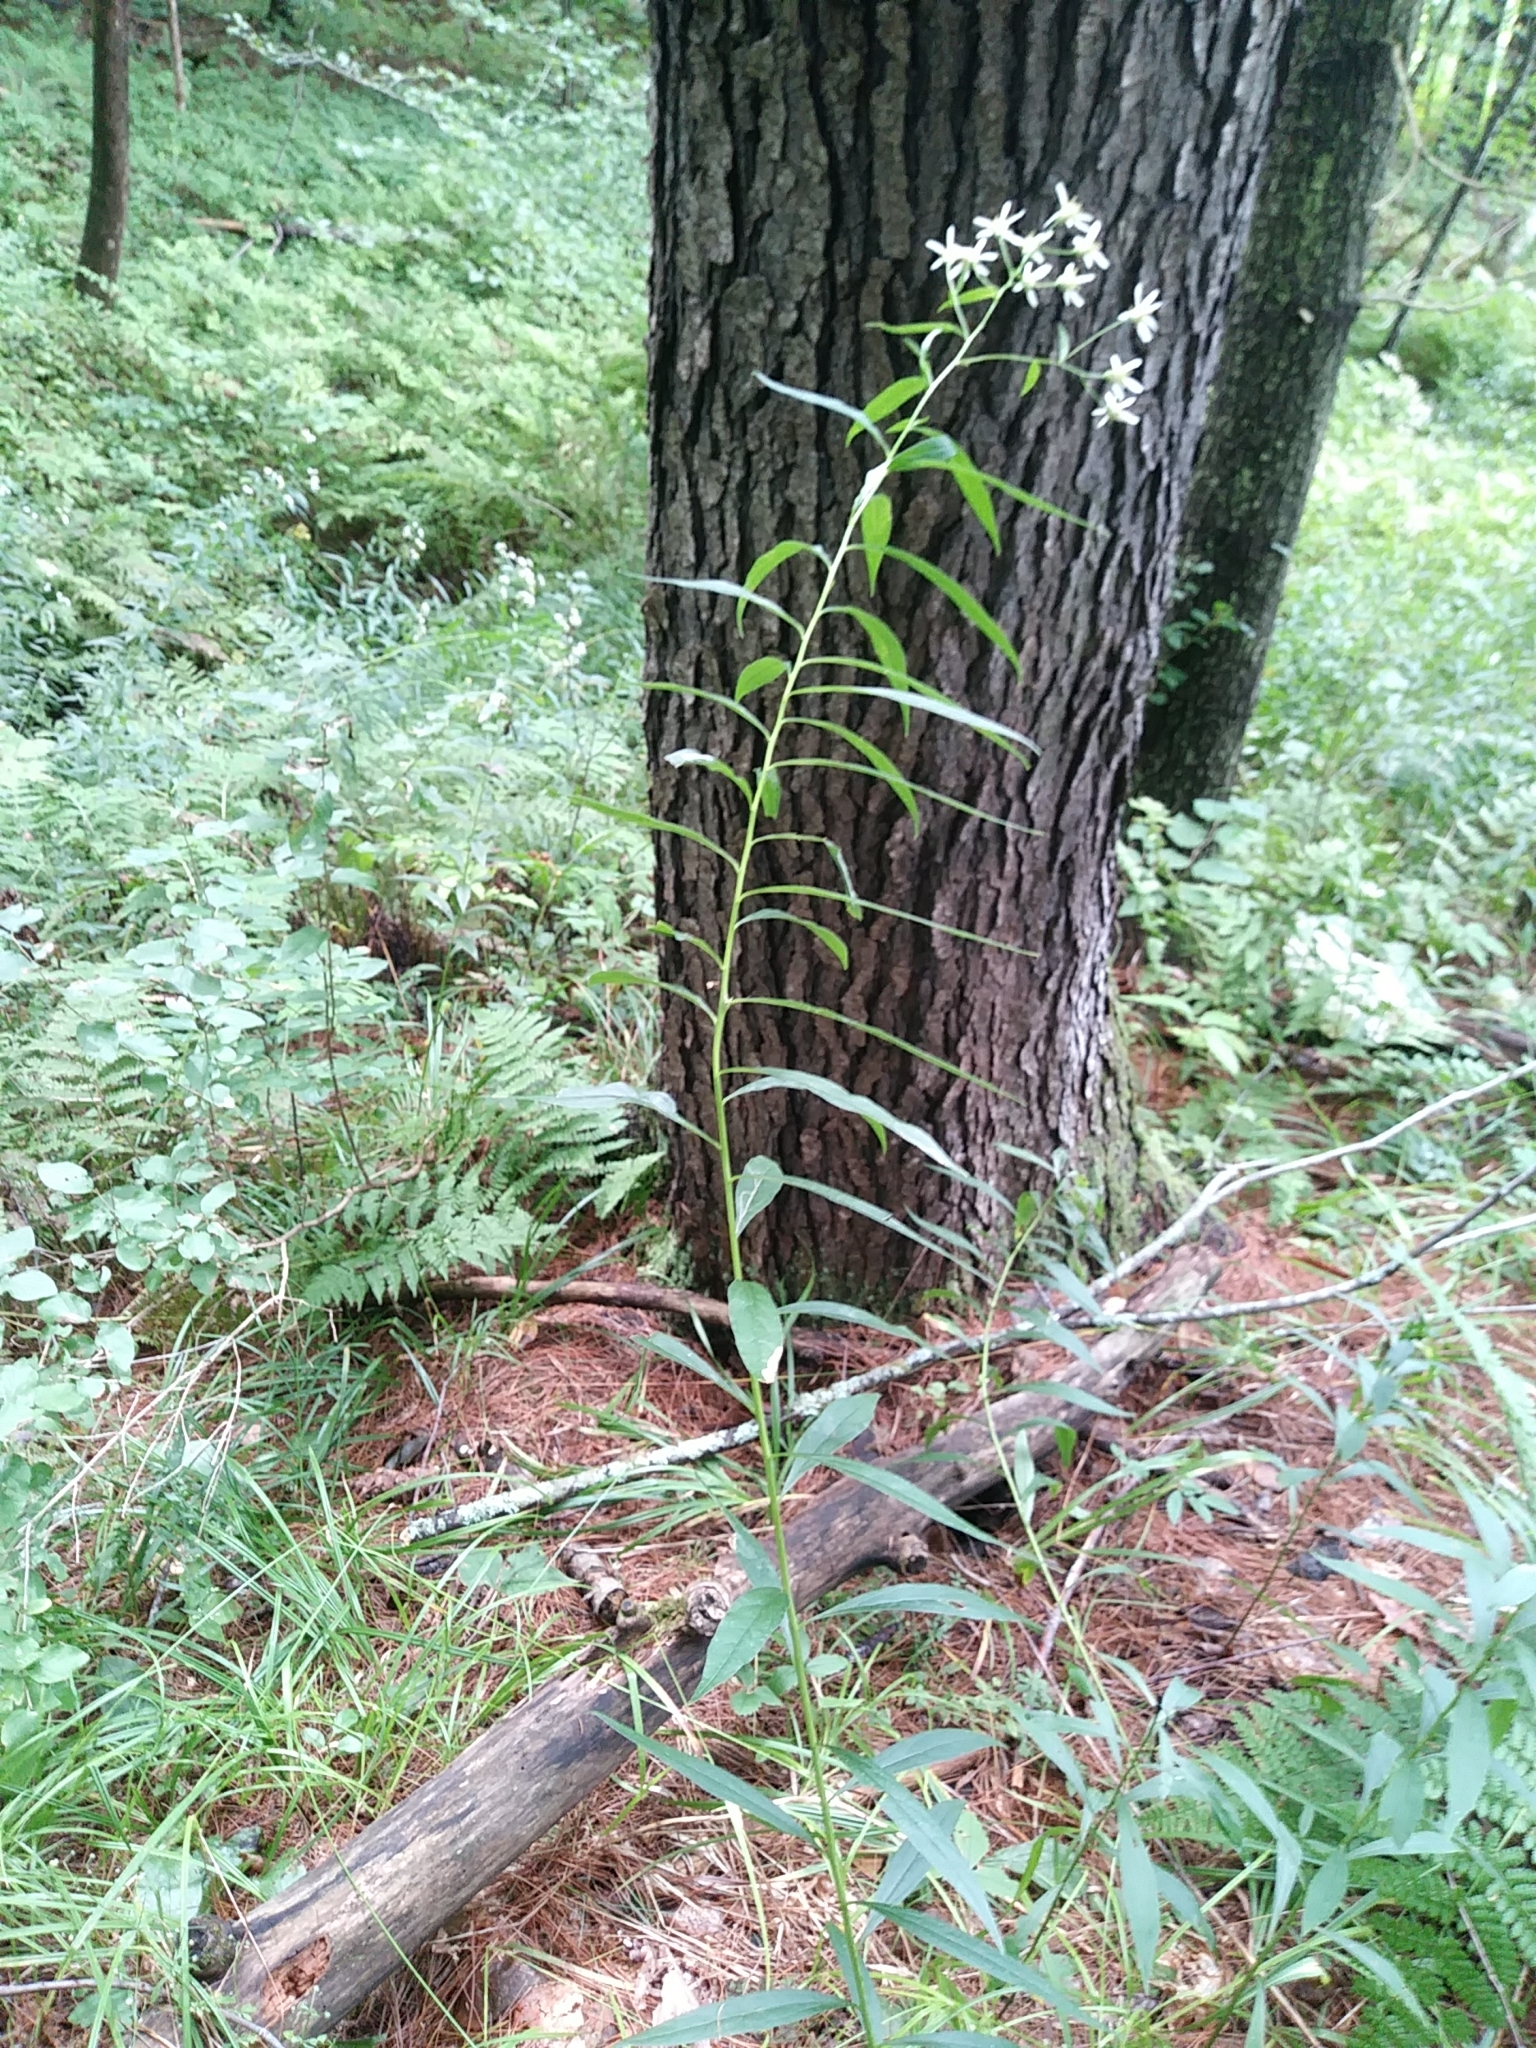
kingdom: Plantae
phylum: Tracheophyta
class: Magnoliopsida
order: Asterales
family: Asteraceae
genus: Doellingeria
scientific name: Doellingeria umbellata
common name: Flat-top white aster
